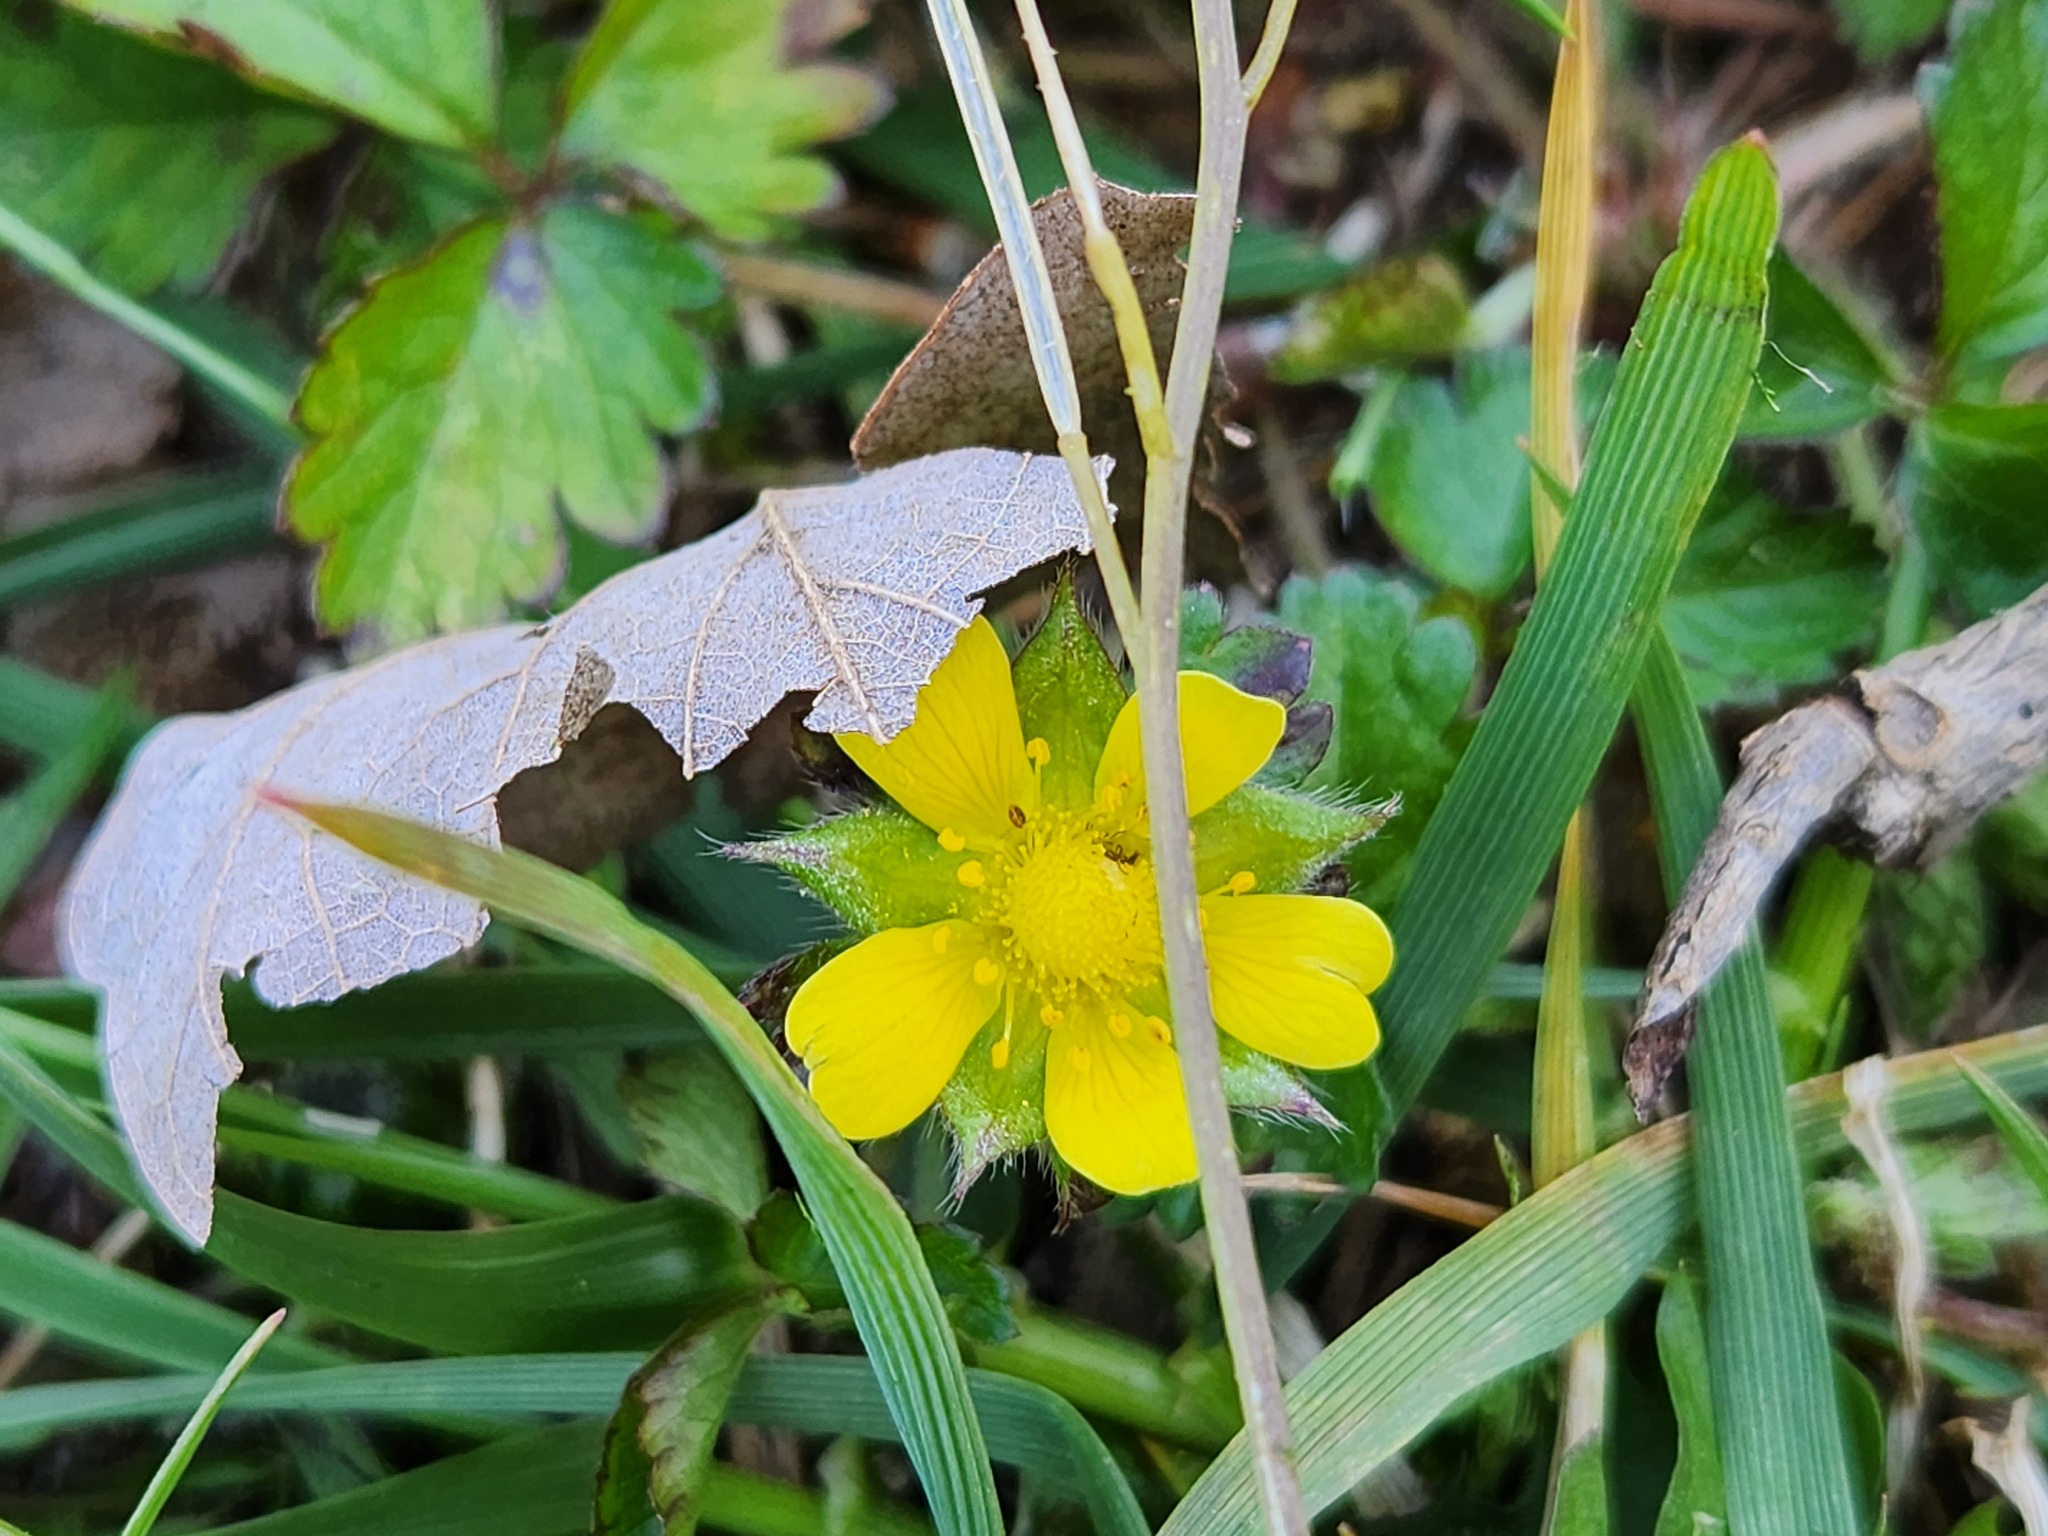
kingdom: Plantae
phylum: Tracheophyta
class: Magnoliopsida
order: Rosales
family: Rosaceae
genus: Potentilla
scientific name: Potentilla indica
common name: Yellow-flowered strawberry
